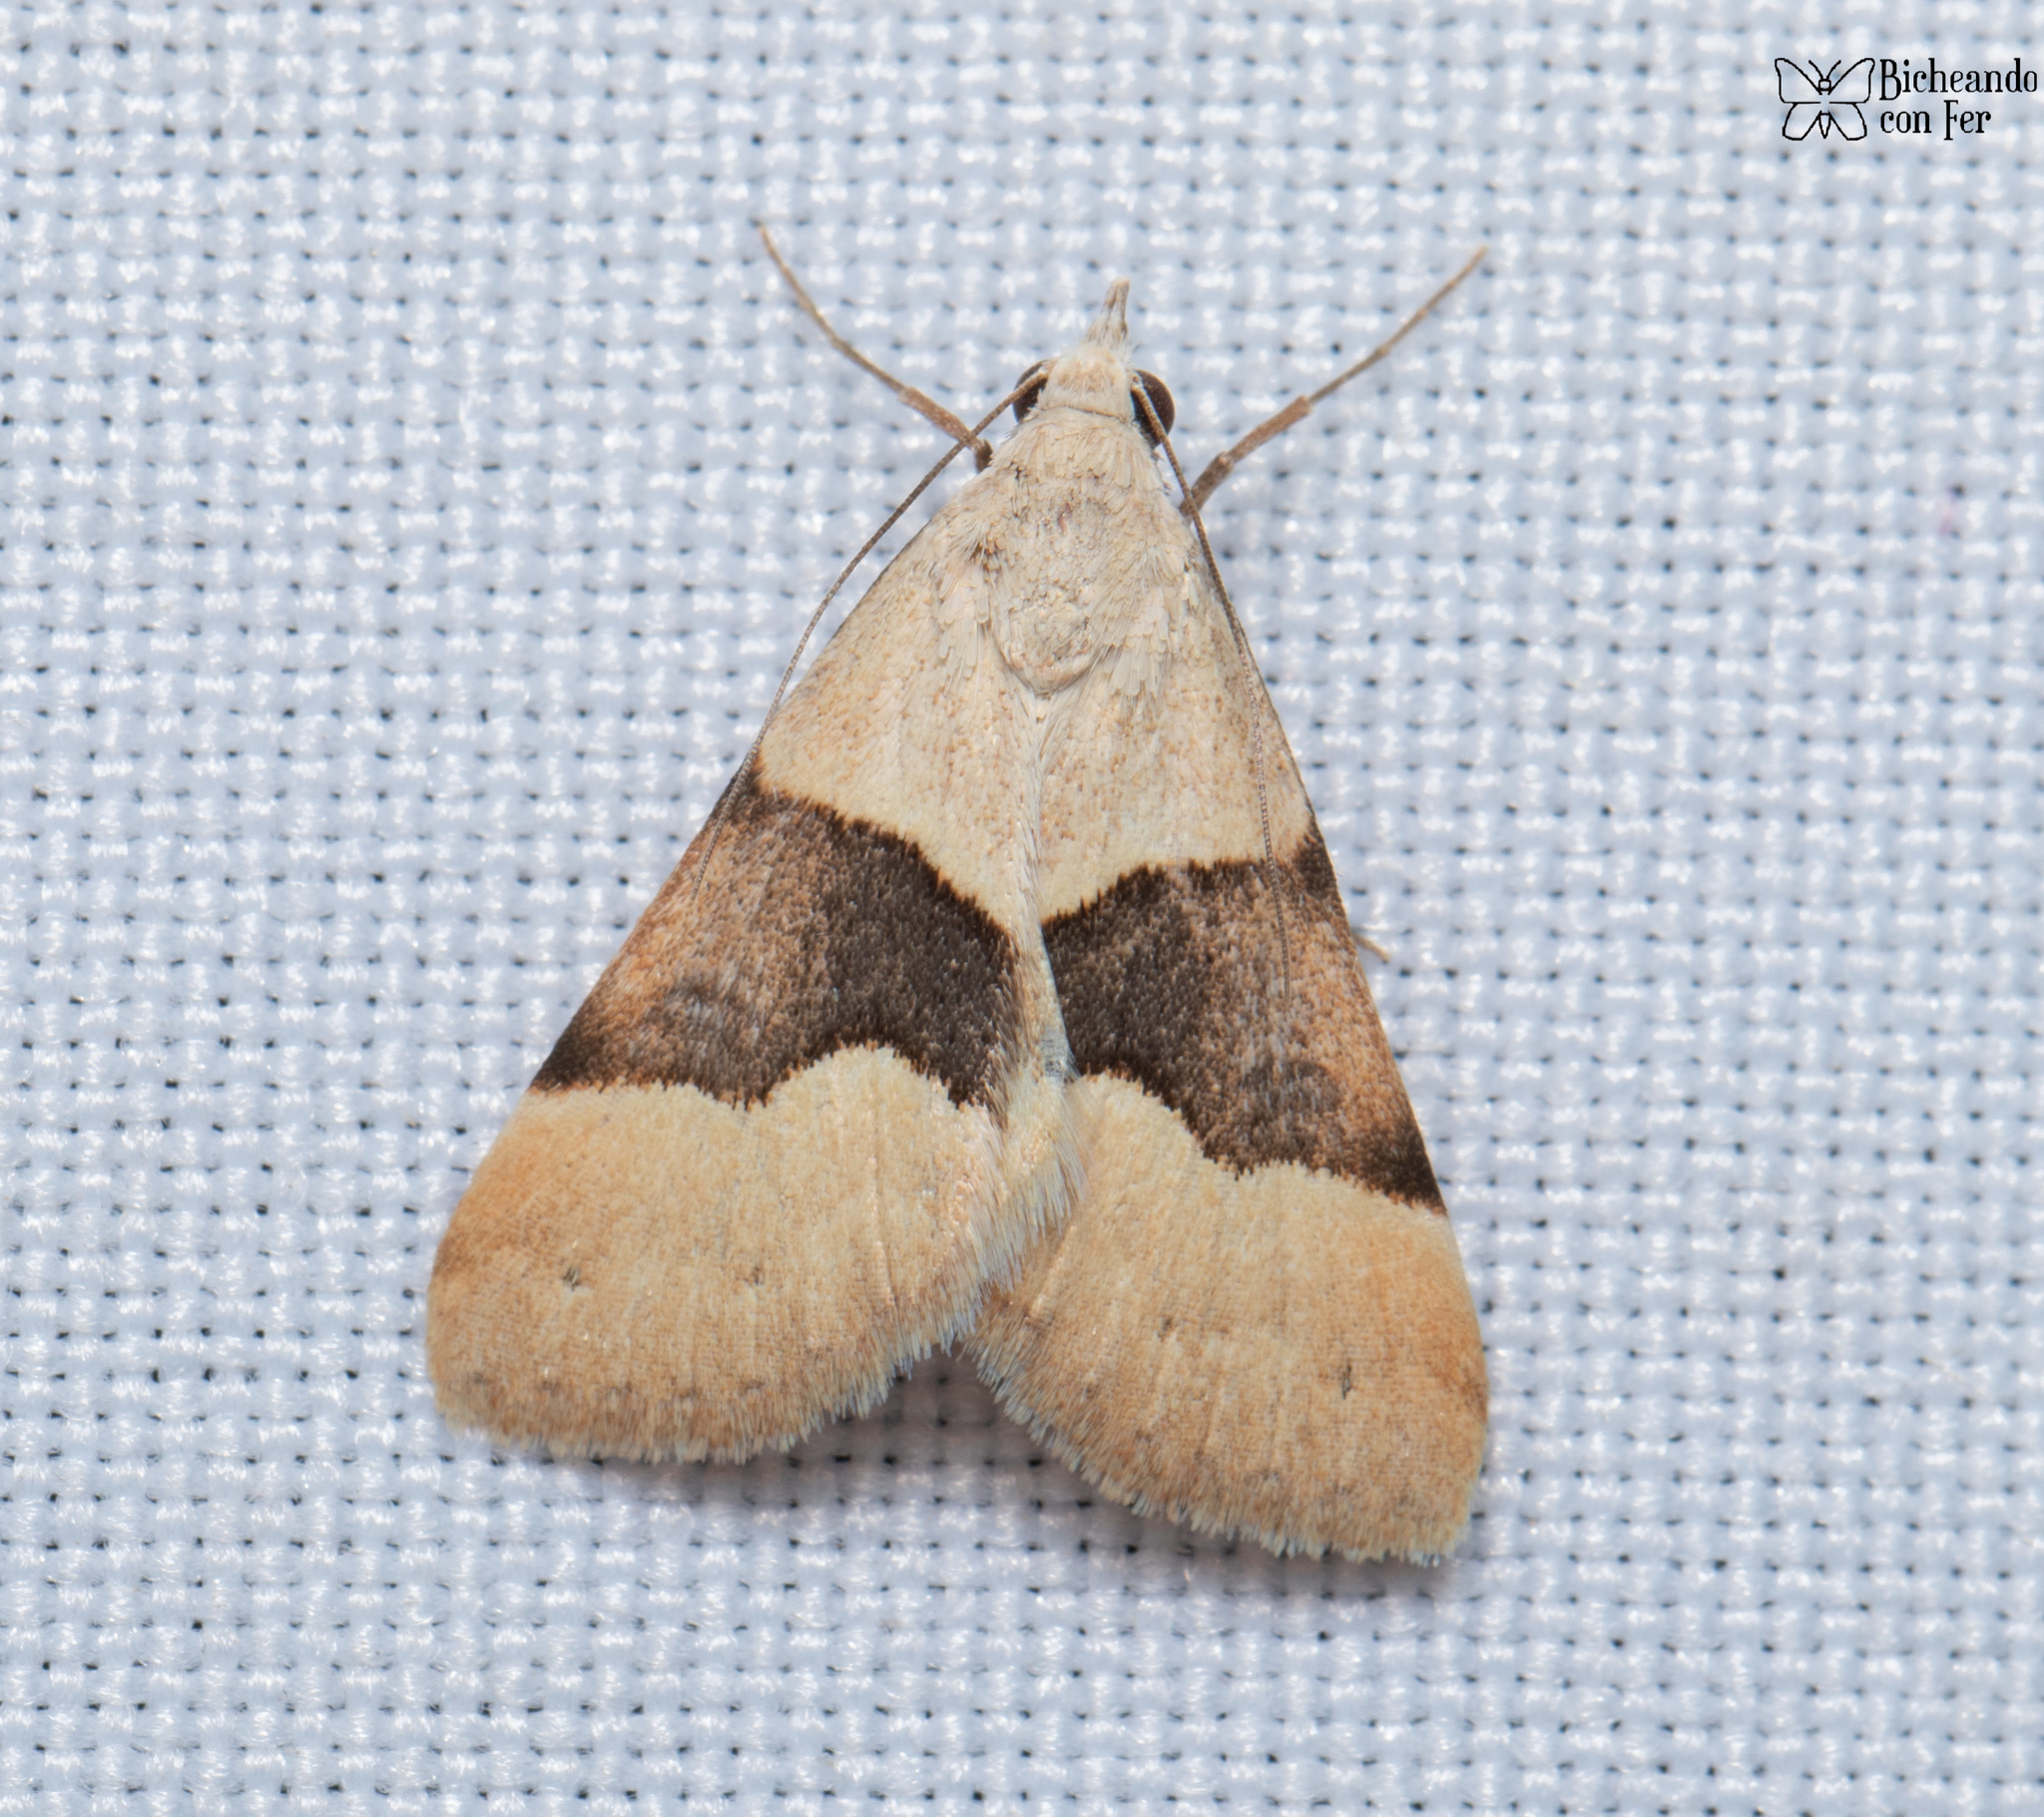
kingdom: Animalia
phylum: Arthropoda
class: Insecta
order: Lepidoptera
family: Erebidae
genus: Hemeroplanis
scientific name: Hemeroplanis incusalis
